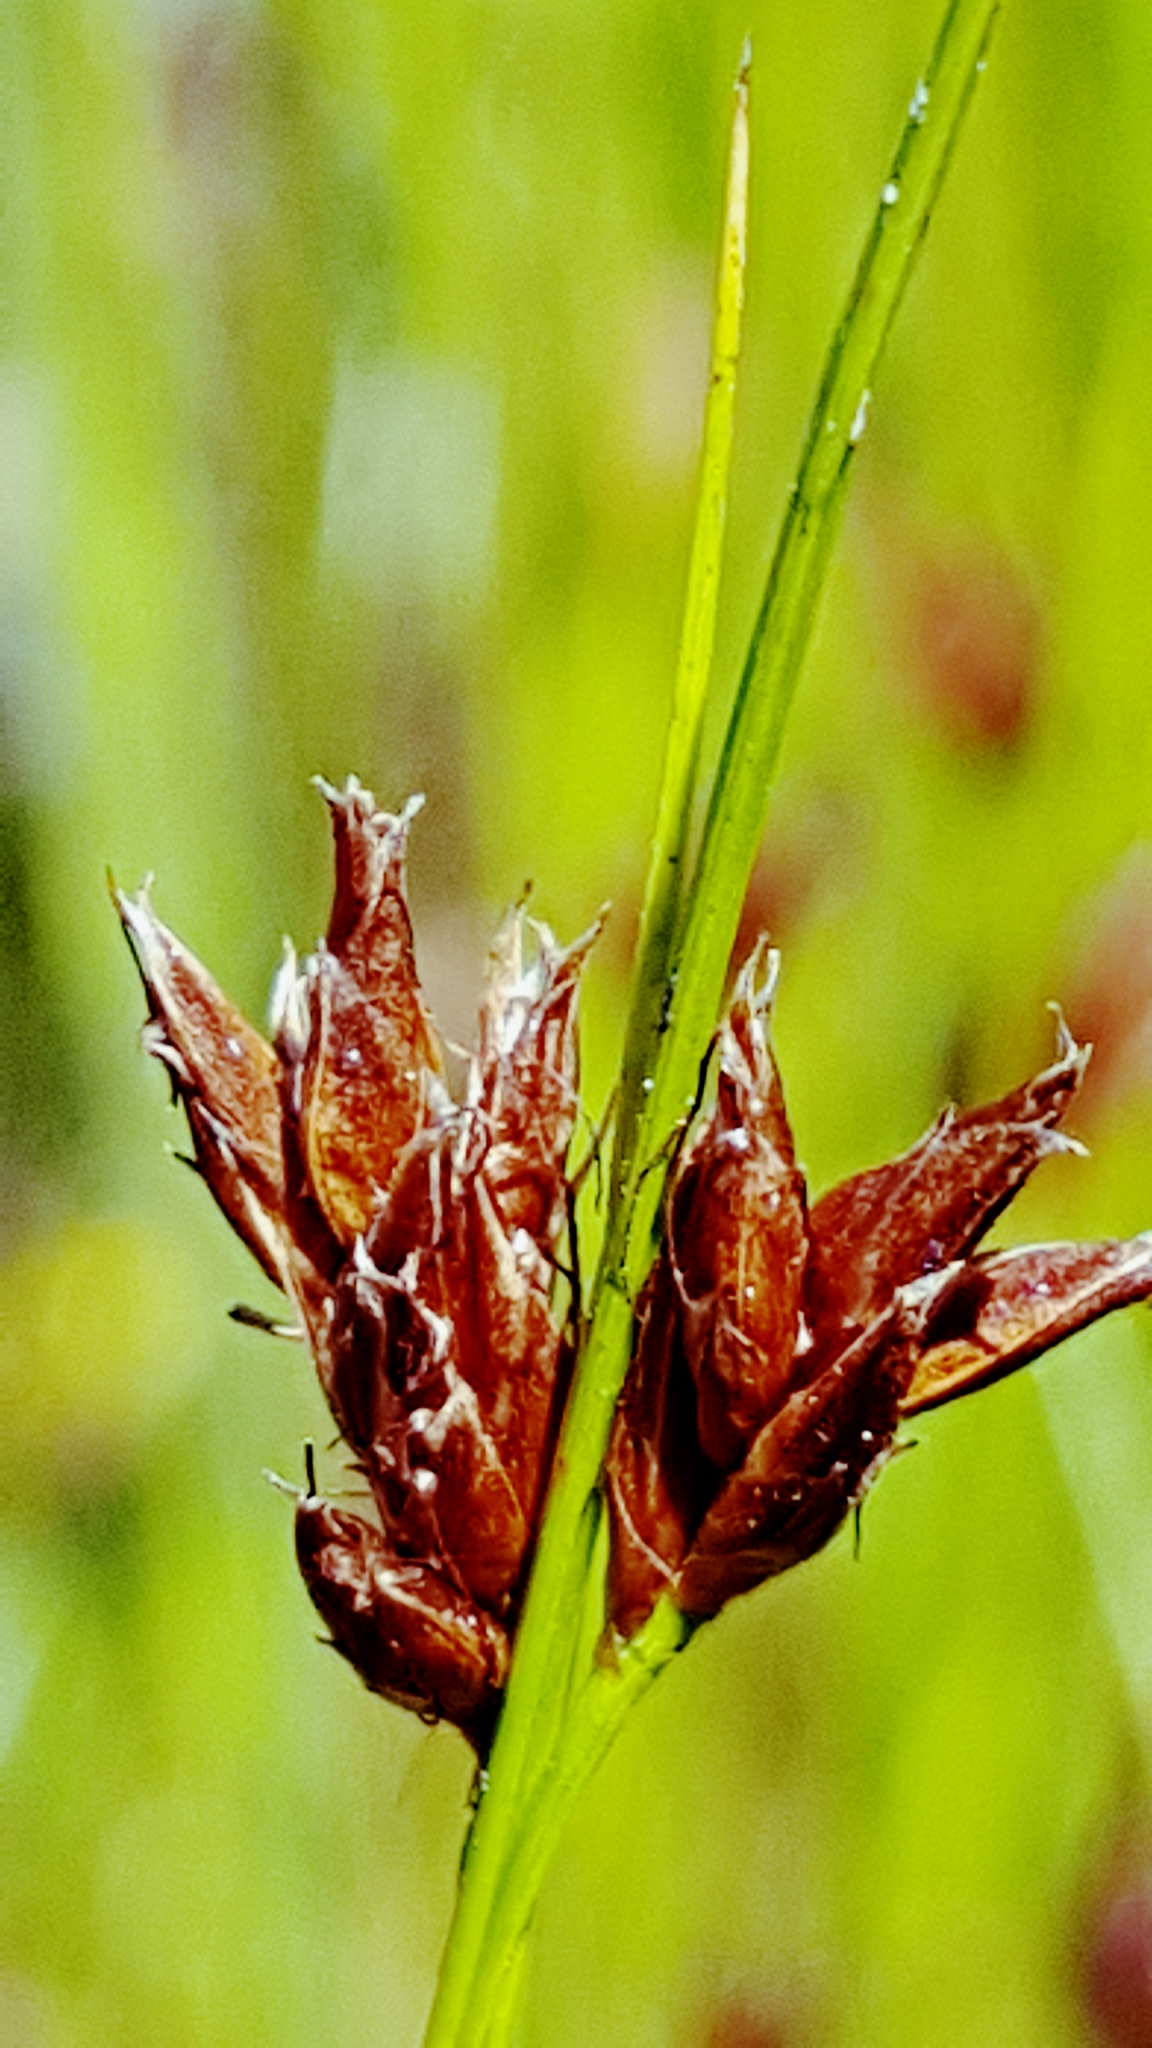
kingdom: Plantae
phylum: Tracheophyta
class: Liliopsida
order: Poales
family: Cyperaceae
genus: Rhynchospora
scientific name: Rhynchospora fusca
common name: Brown beak-sedge
